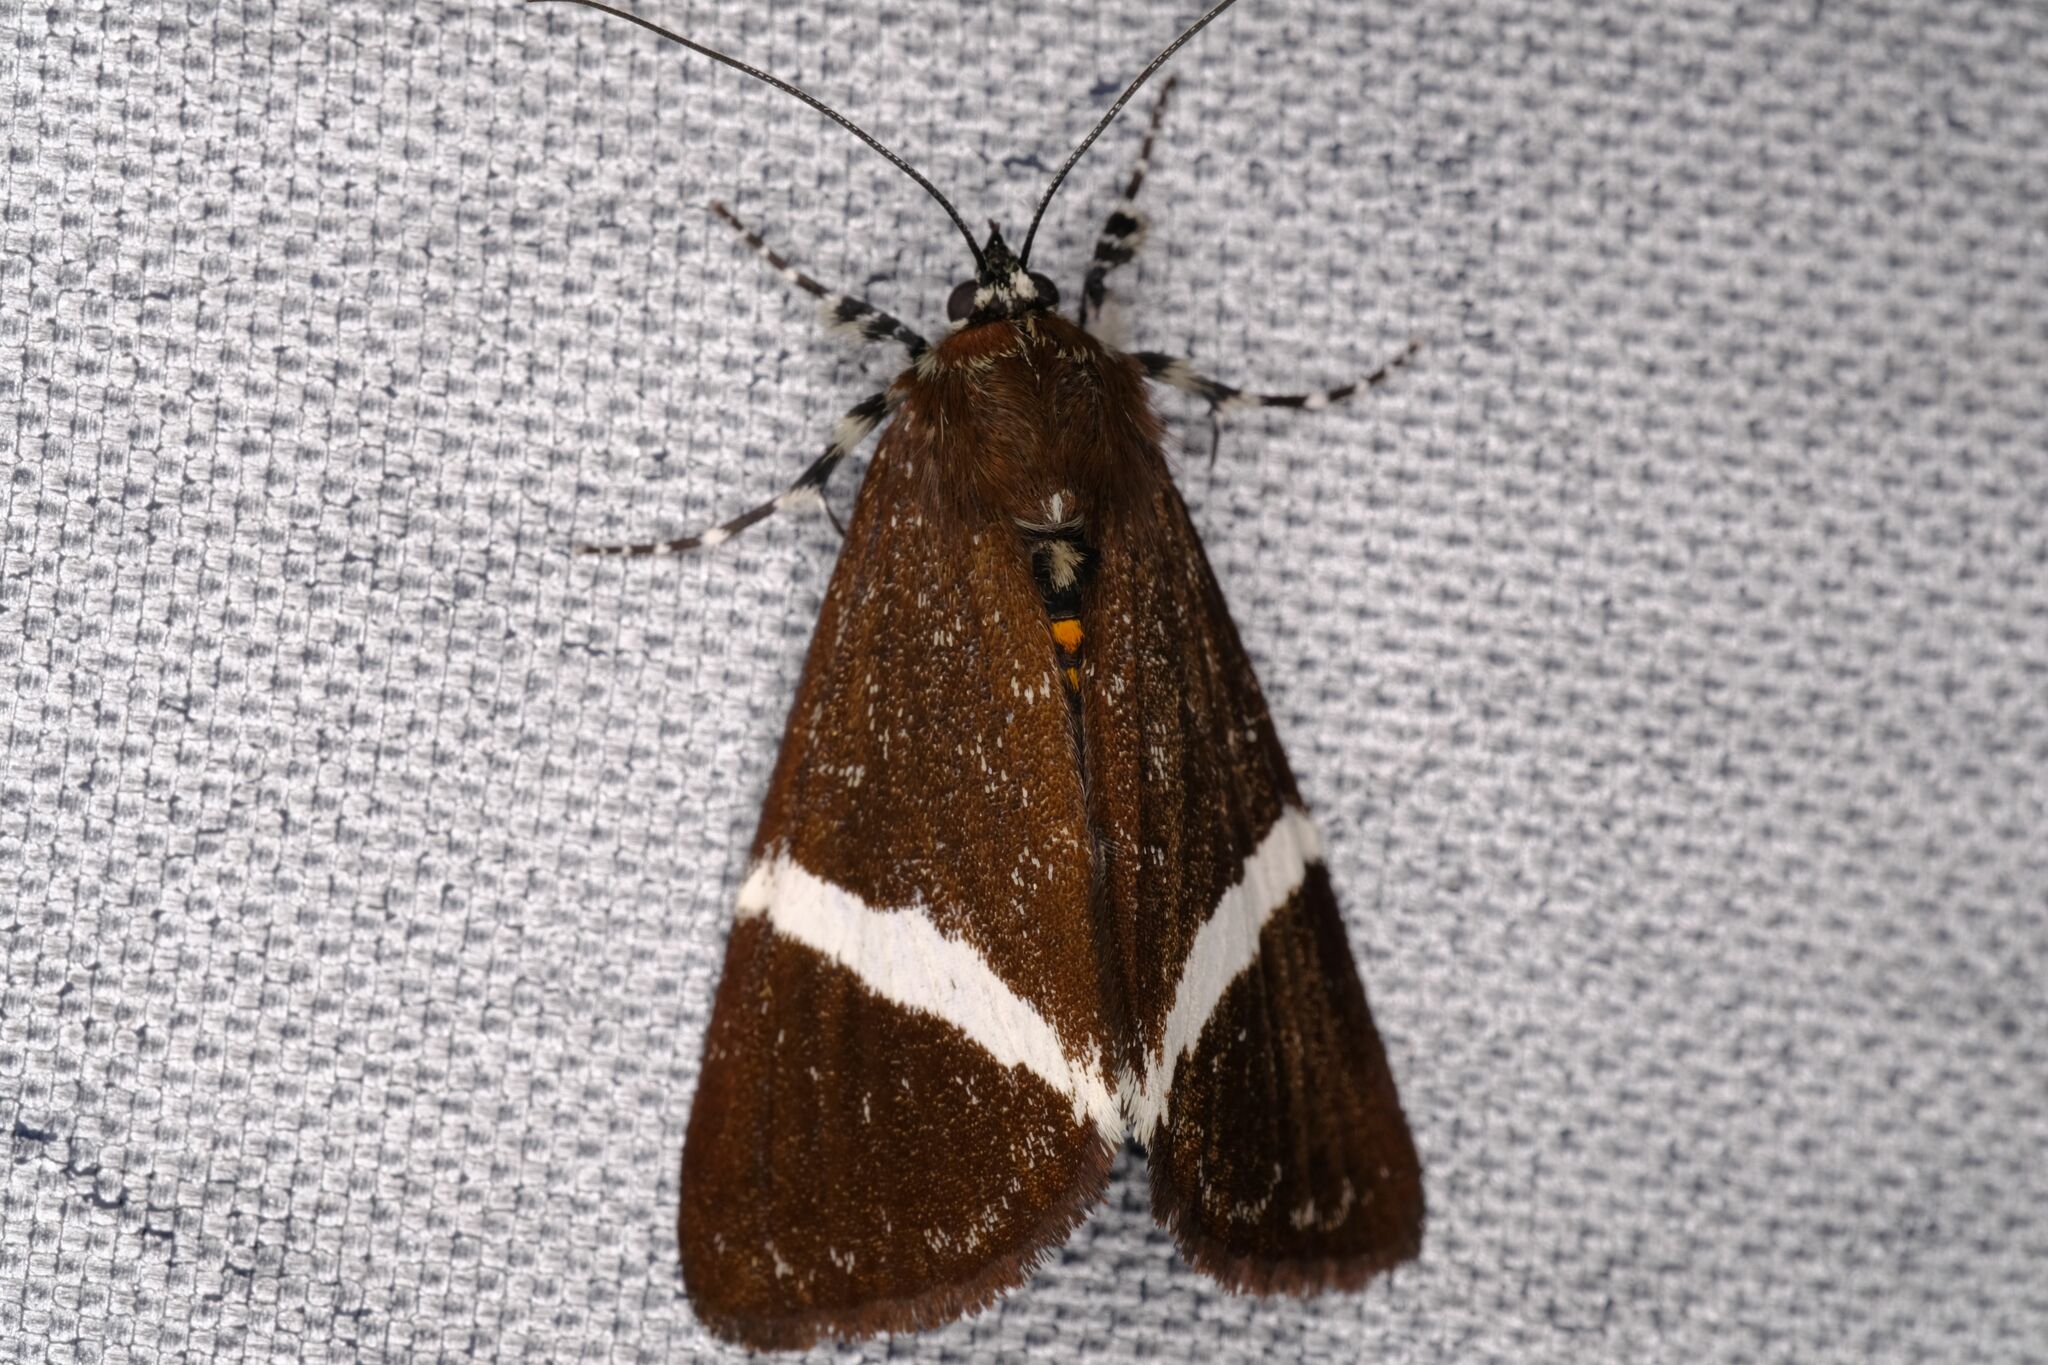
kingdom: Animalia
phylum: Arthropoda
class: Insecta
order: Lepidoptera
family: Noctuidae
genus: Coenotoca
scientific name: Coenotoca subaspersa
